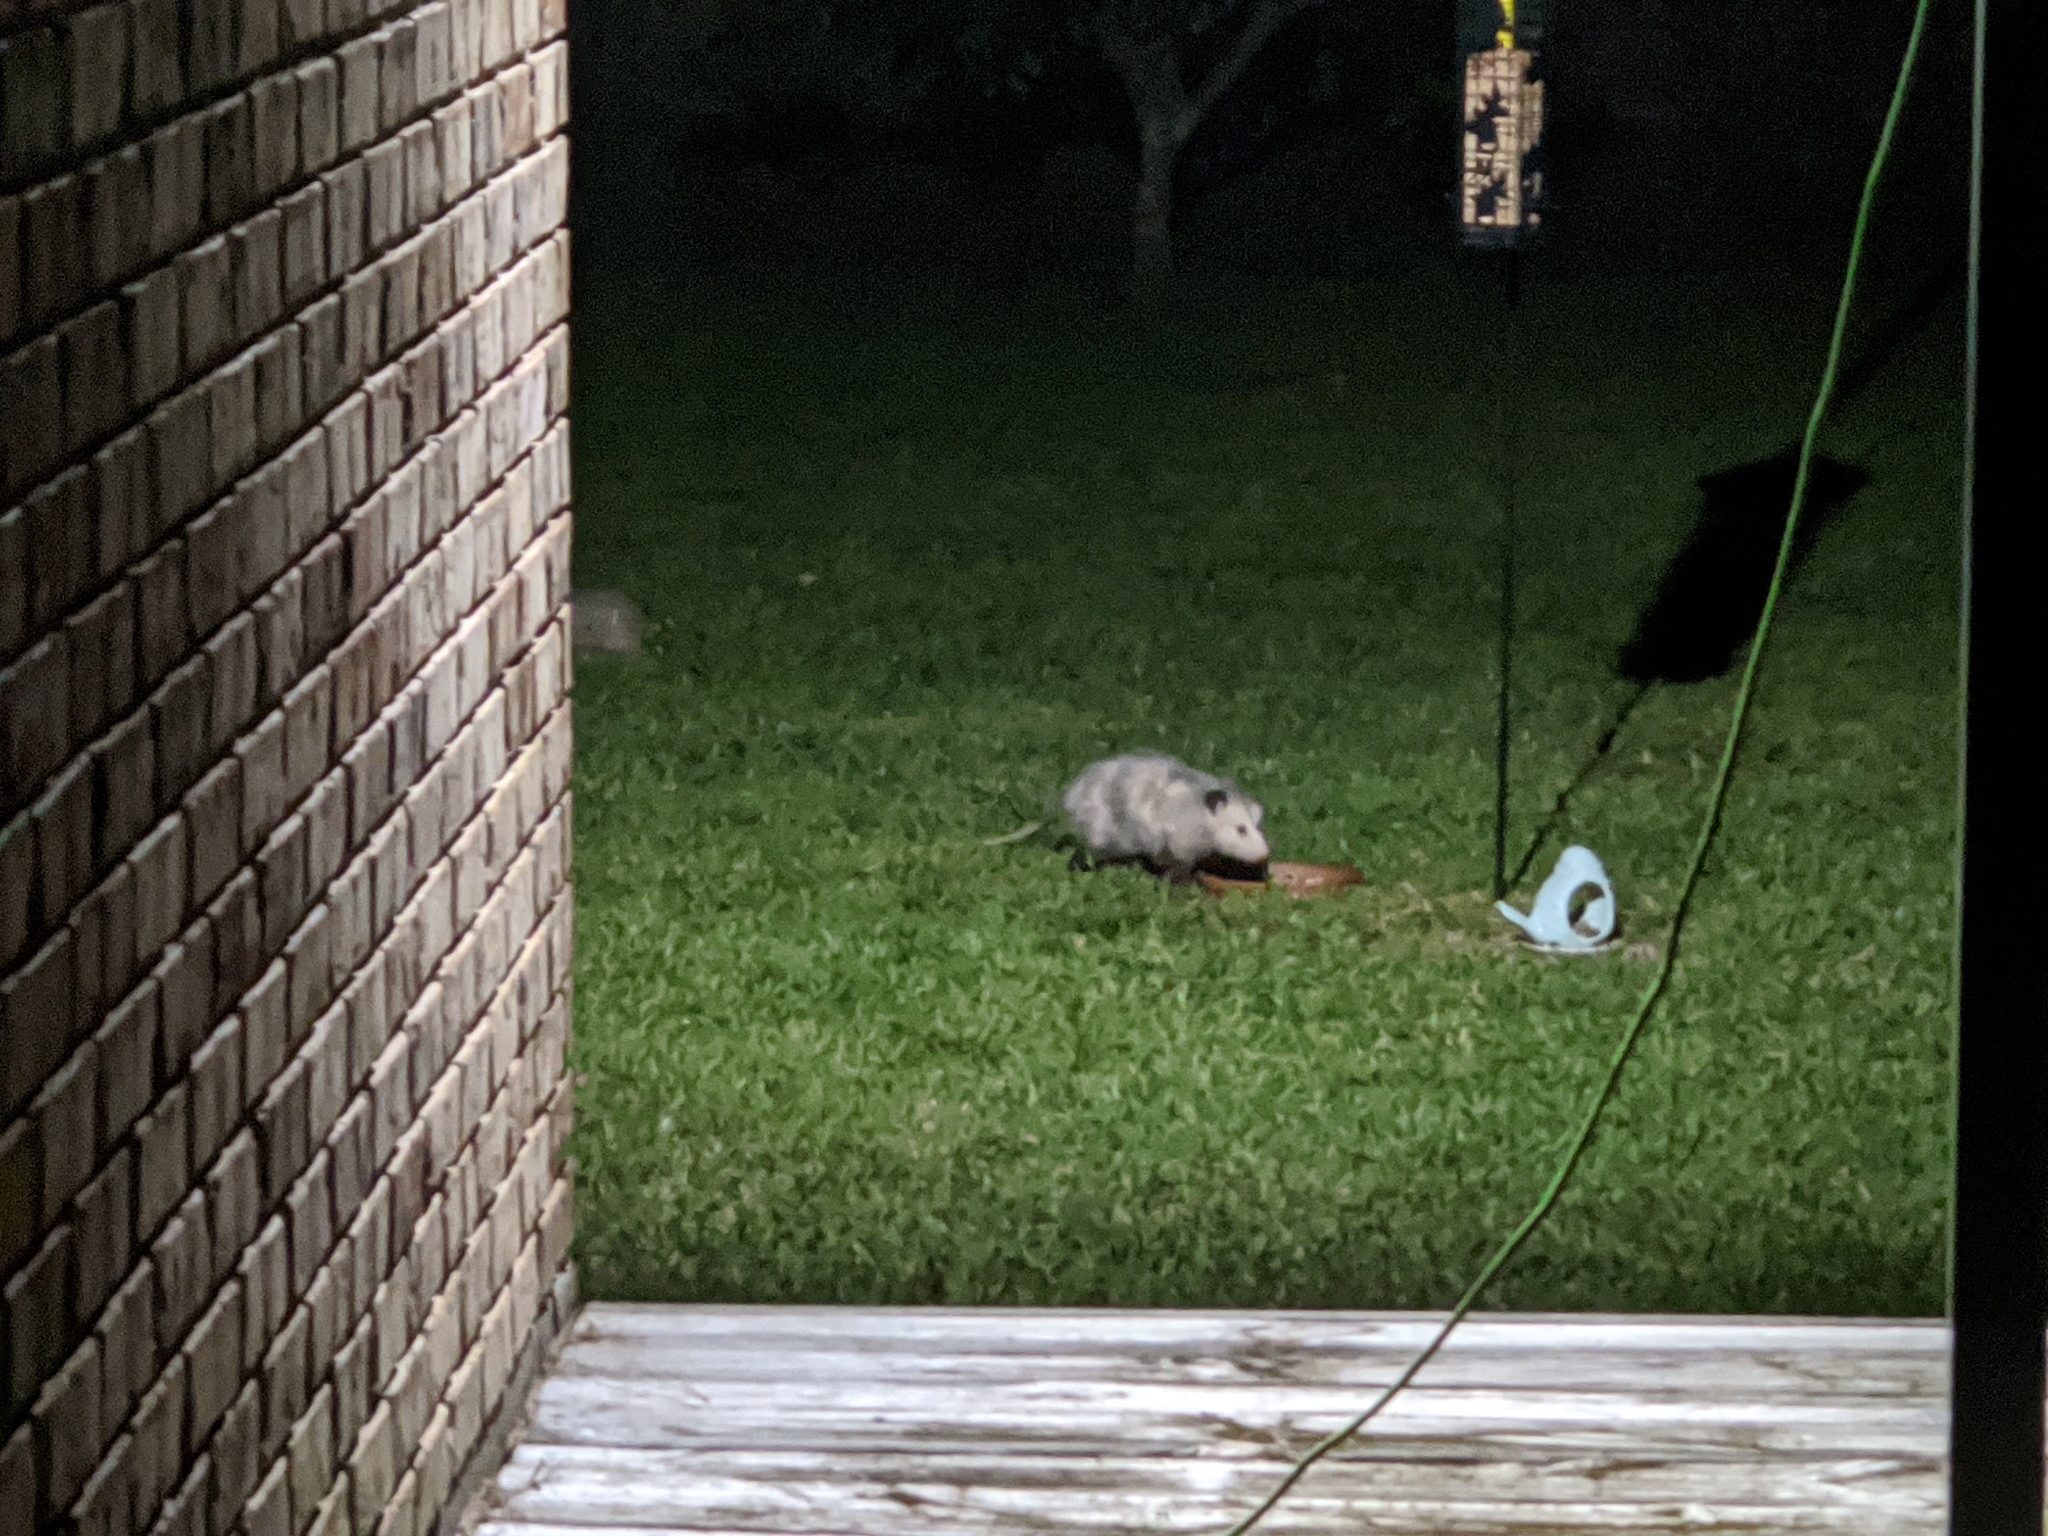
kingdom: Animalia
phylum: Chordata
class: Mammalia
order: Didelphimorphia
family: Didelphidae
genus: Didelphis
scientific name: Didelphis virginiana
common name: Virginia opossum
